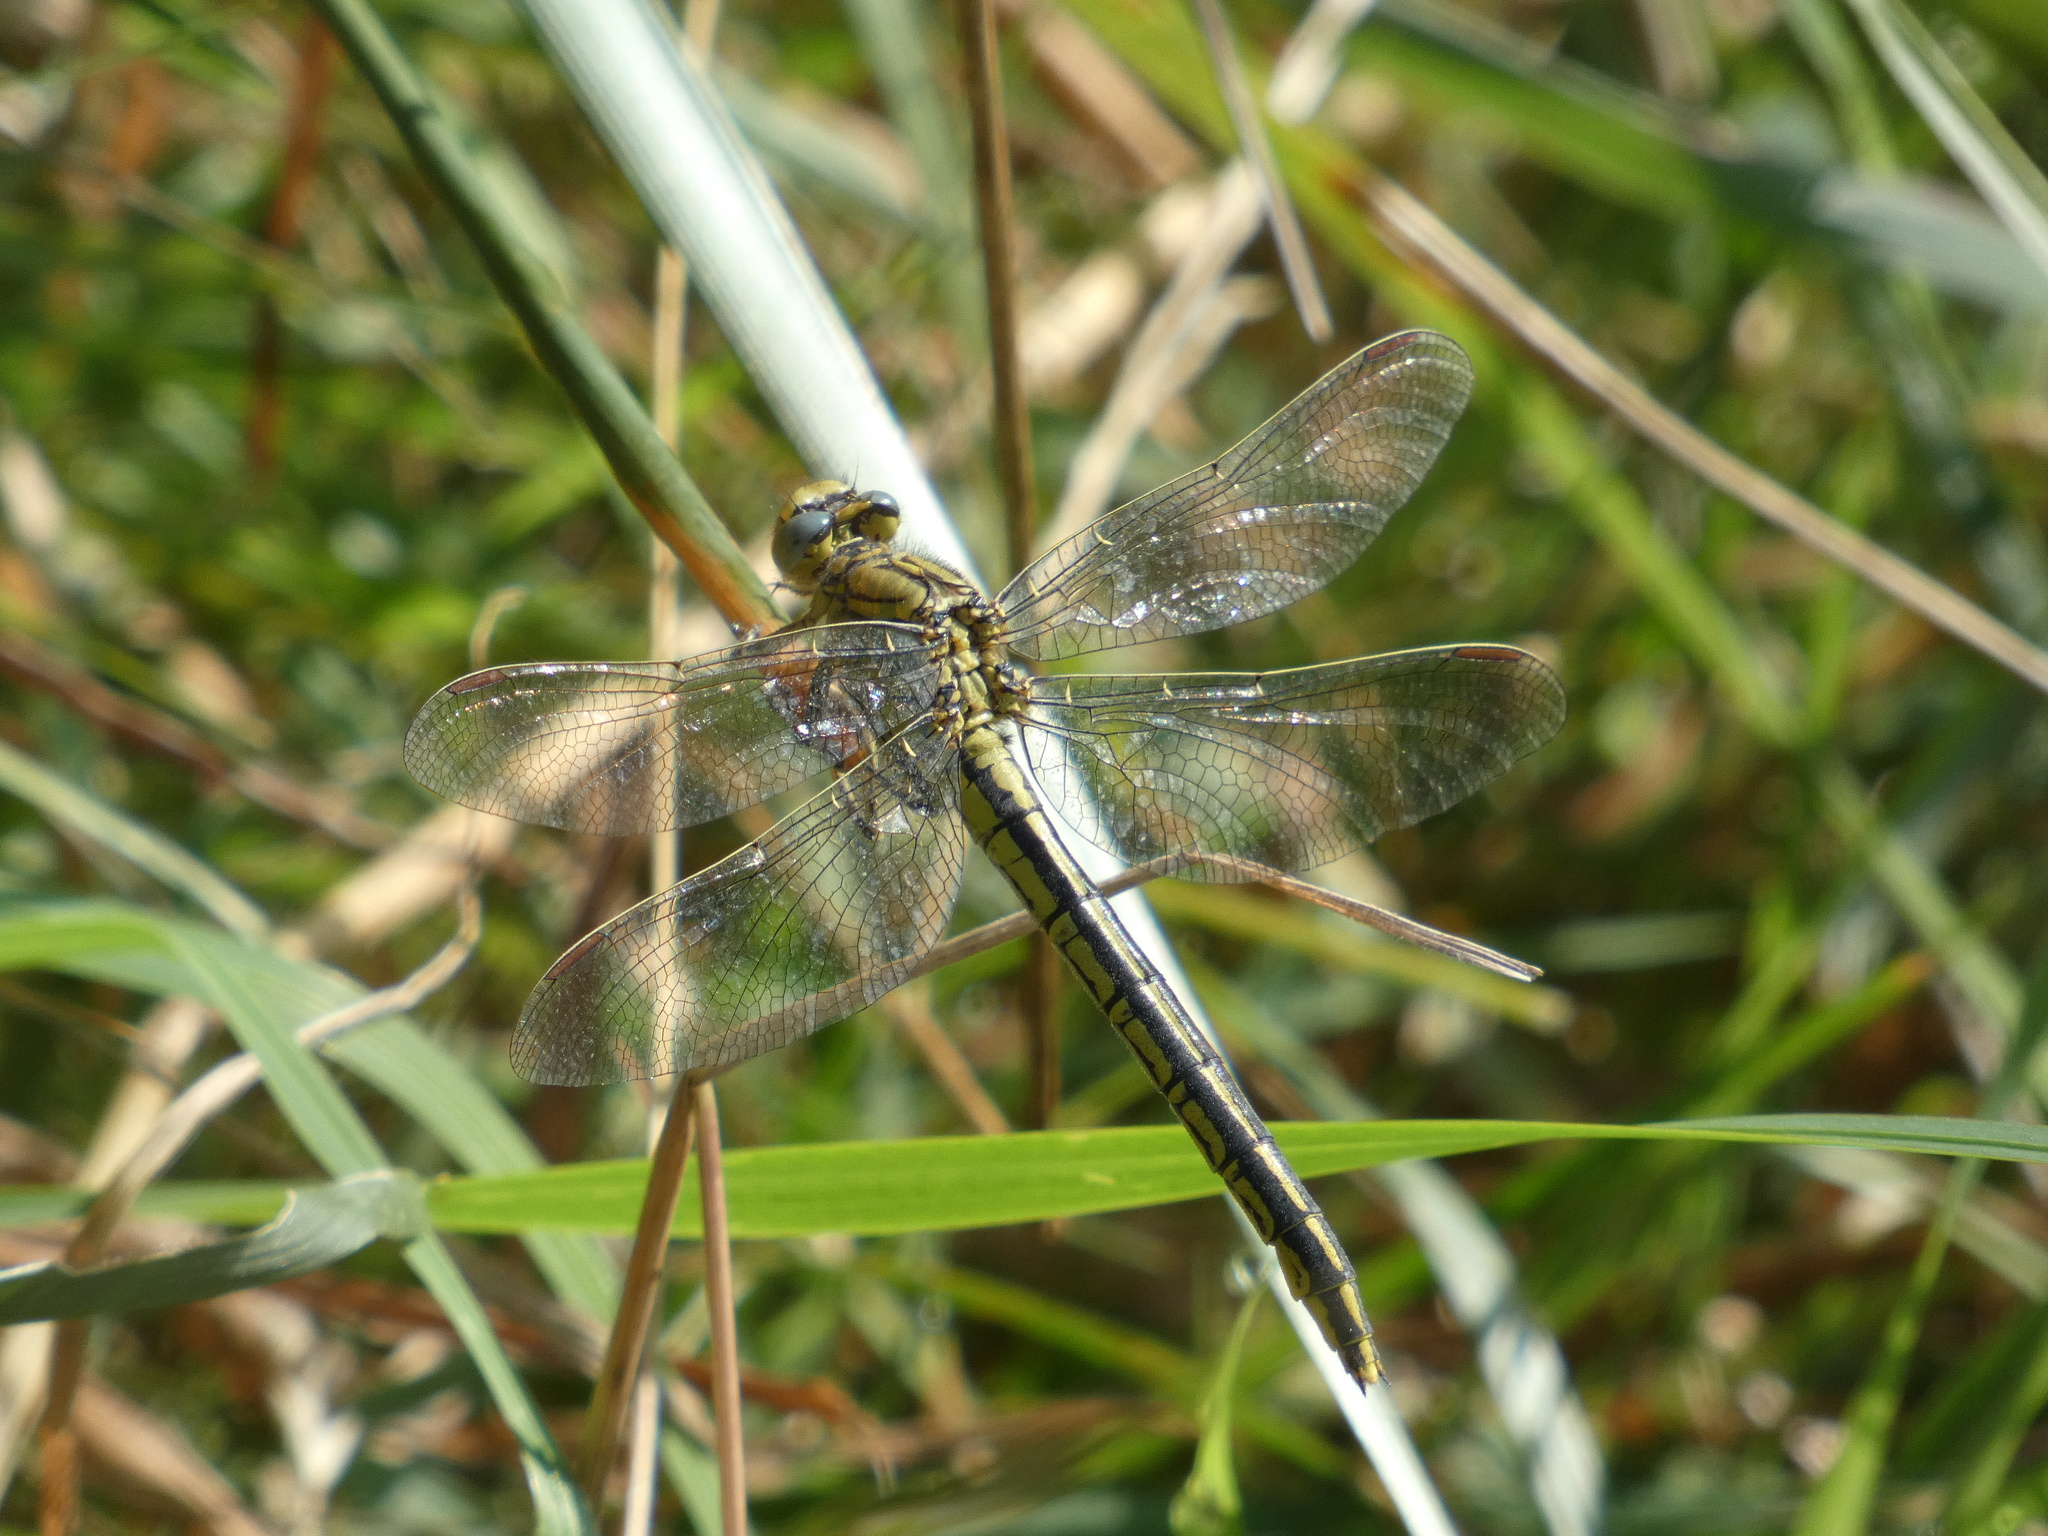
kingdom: Animalia
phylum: Arthropoda
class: Insecta
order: Odonata
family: Gomphidae
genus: Gomphus
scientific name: Gomphus pulchellus
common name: Western clubtail
